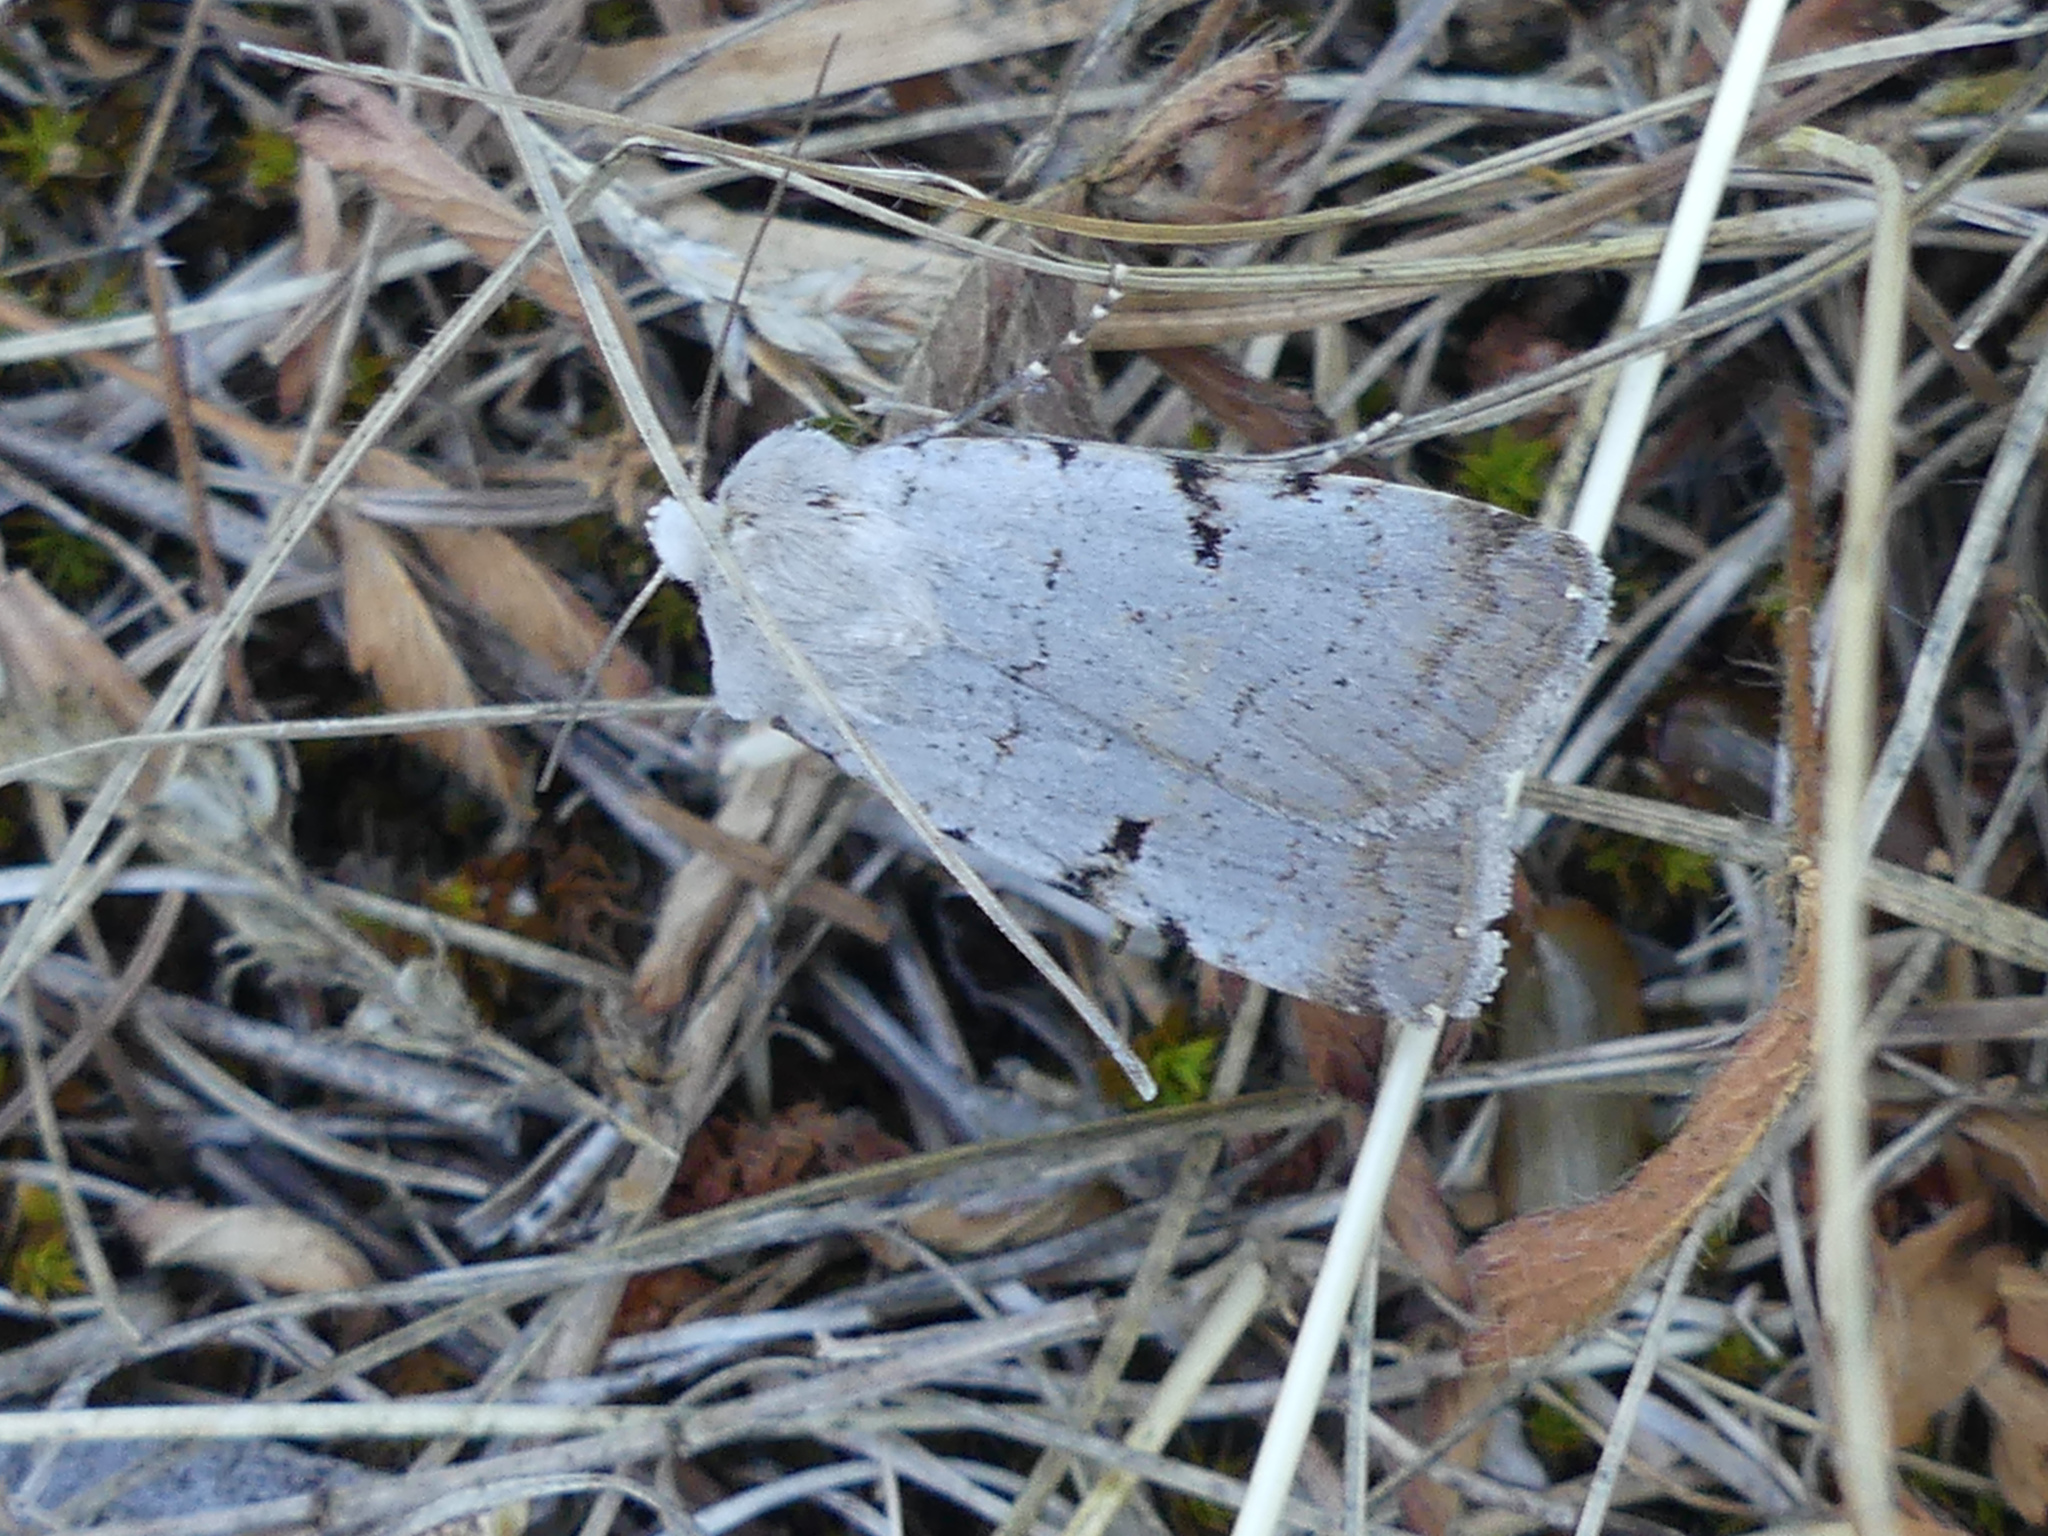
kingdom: Animalia
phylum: Arthropoda
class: Insecta
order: Lepidoptera
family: Noctuidae
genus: Chersotis
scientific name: Chersotis margaritacea
